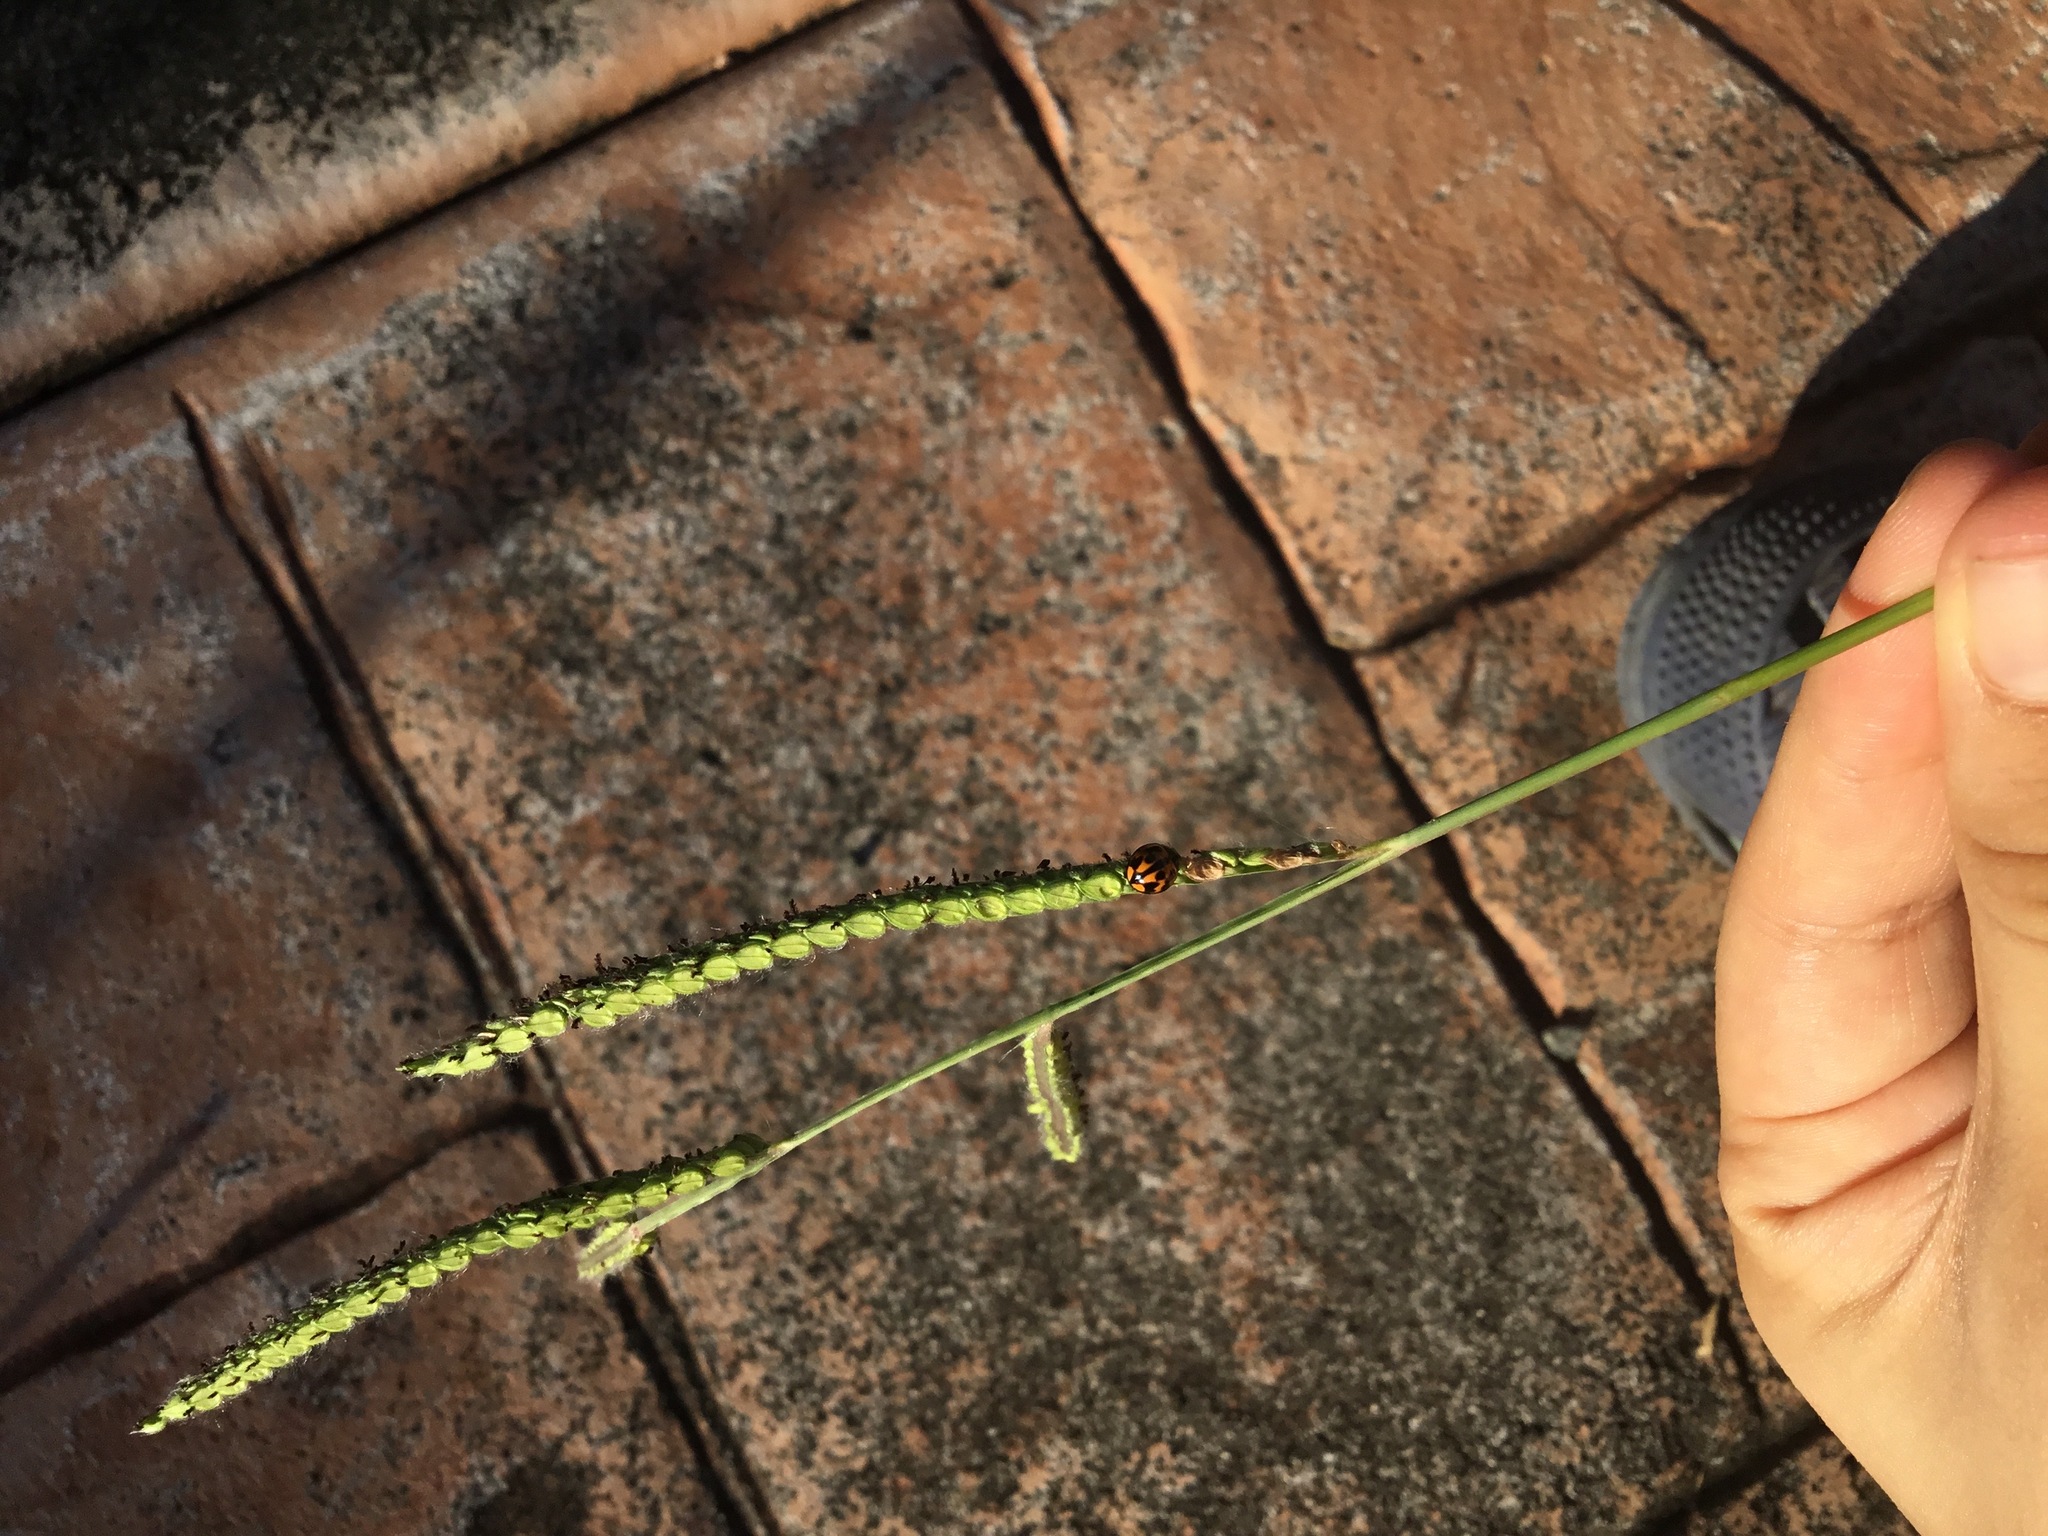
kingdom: Plantae
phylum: Tracheophyta
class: Liliopsida
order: Poales
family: Poaceae
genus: Paspalum
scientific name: Paspalum dilatatum
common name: Dallisgrass
